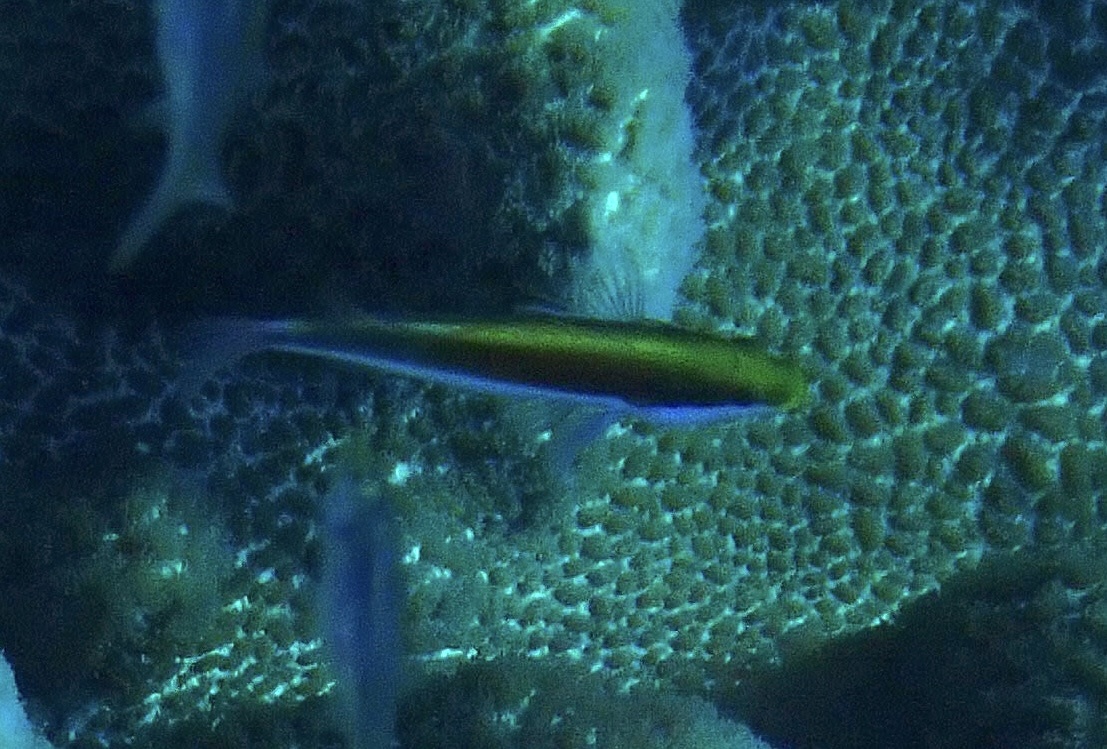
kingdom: Animalia
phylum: Chordata
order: Perciformes
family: Cirrhitidae
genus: Paracirrhites
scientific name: Paracirrhites forsteri
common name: Freckled hawkfish
